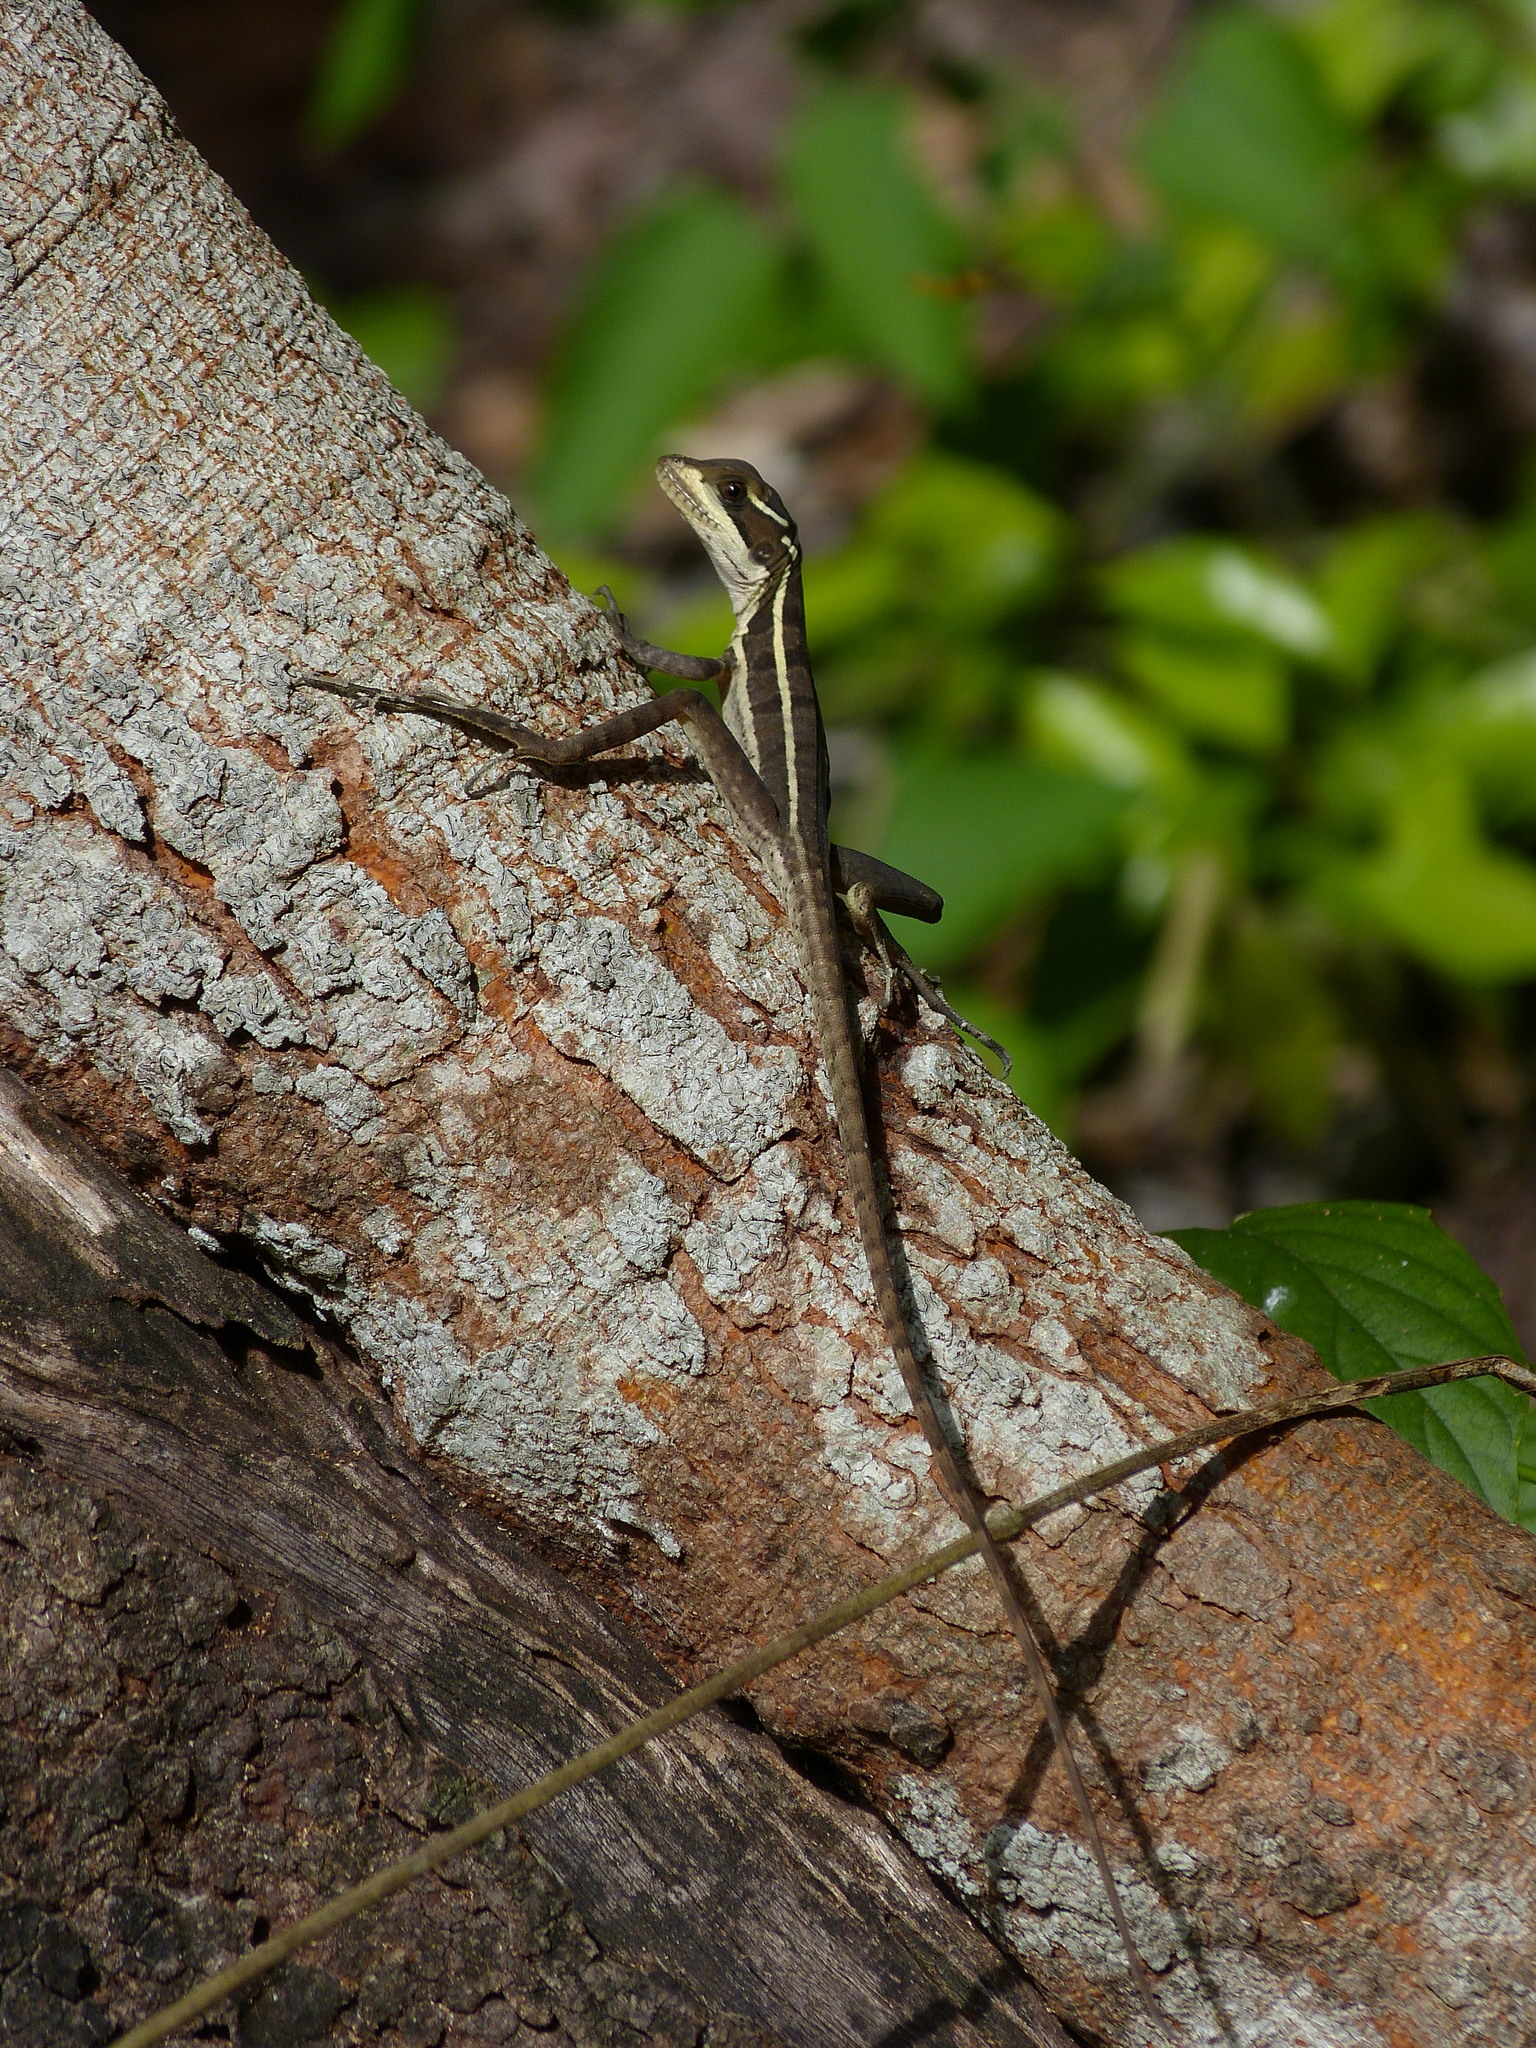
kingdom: Animalia
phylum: Chordata
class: Squamata
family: Corytophanidae
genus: Basiliscus
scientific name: Basiliscus vittatus
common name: Brown basilisk
